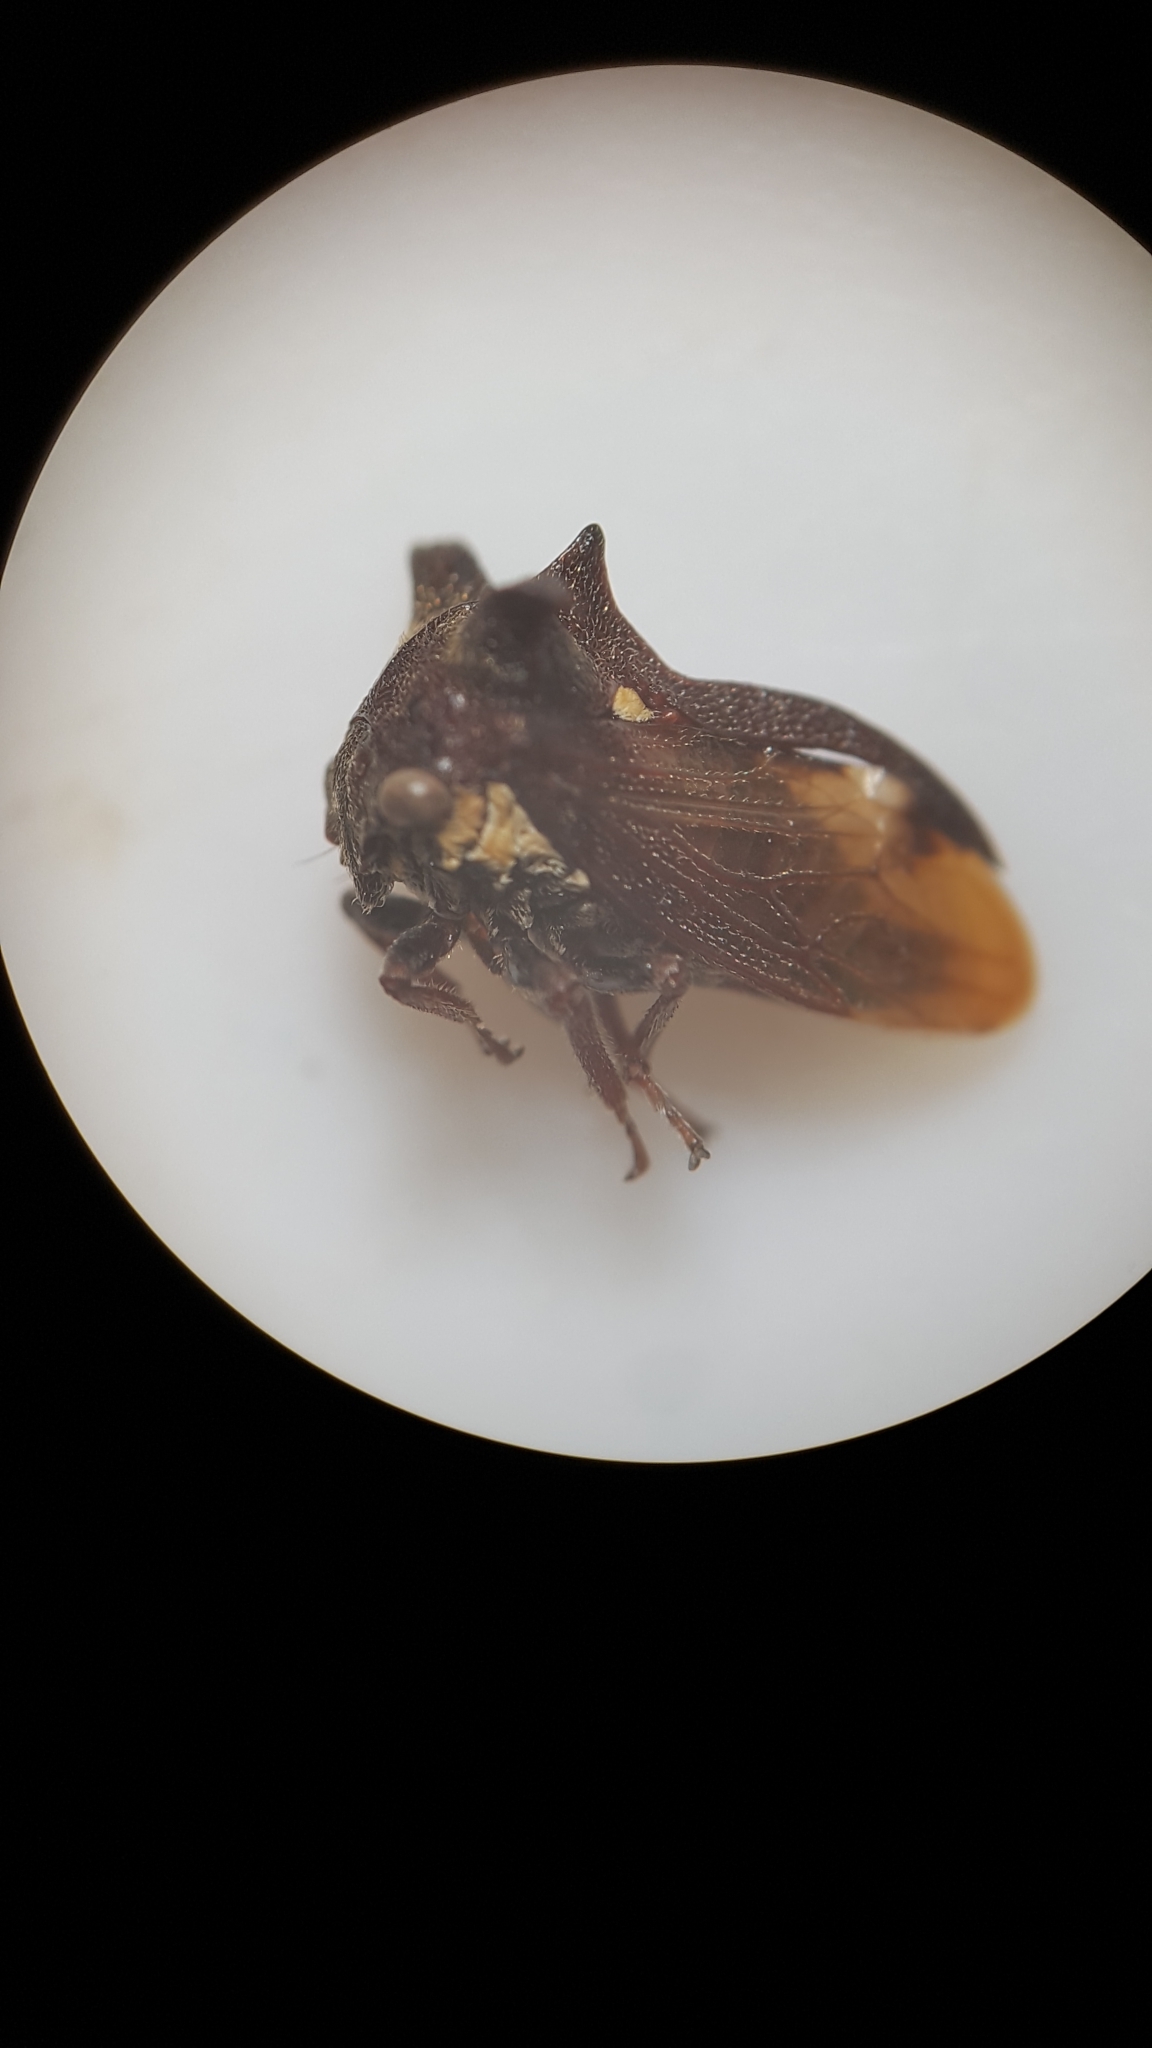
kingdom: Animalia
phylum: Arthropoda
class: Insecta
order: Hemiptera
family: Membracidae
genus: Acanthuchus
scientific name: Acanthuchus trispinifer
